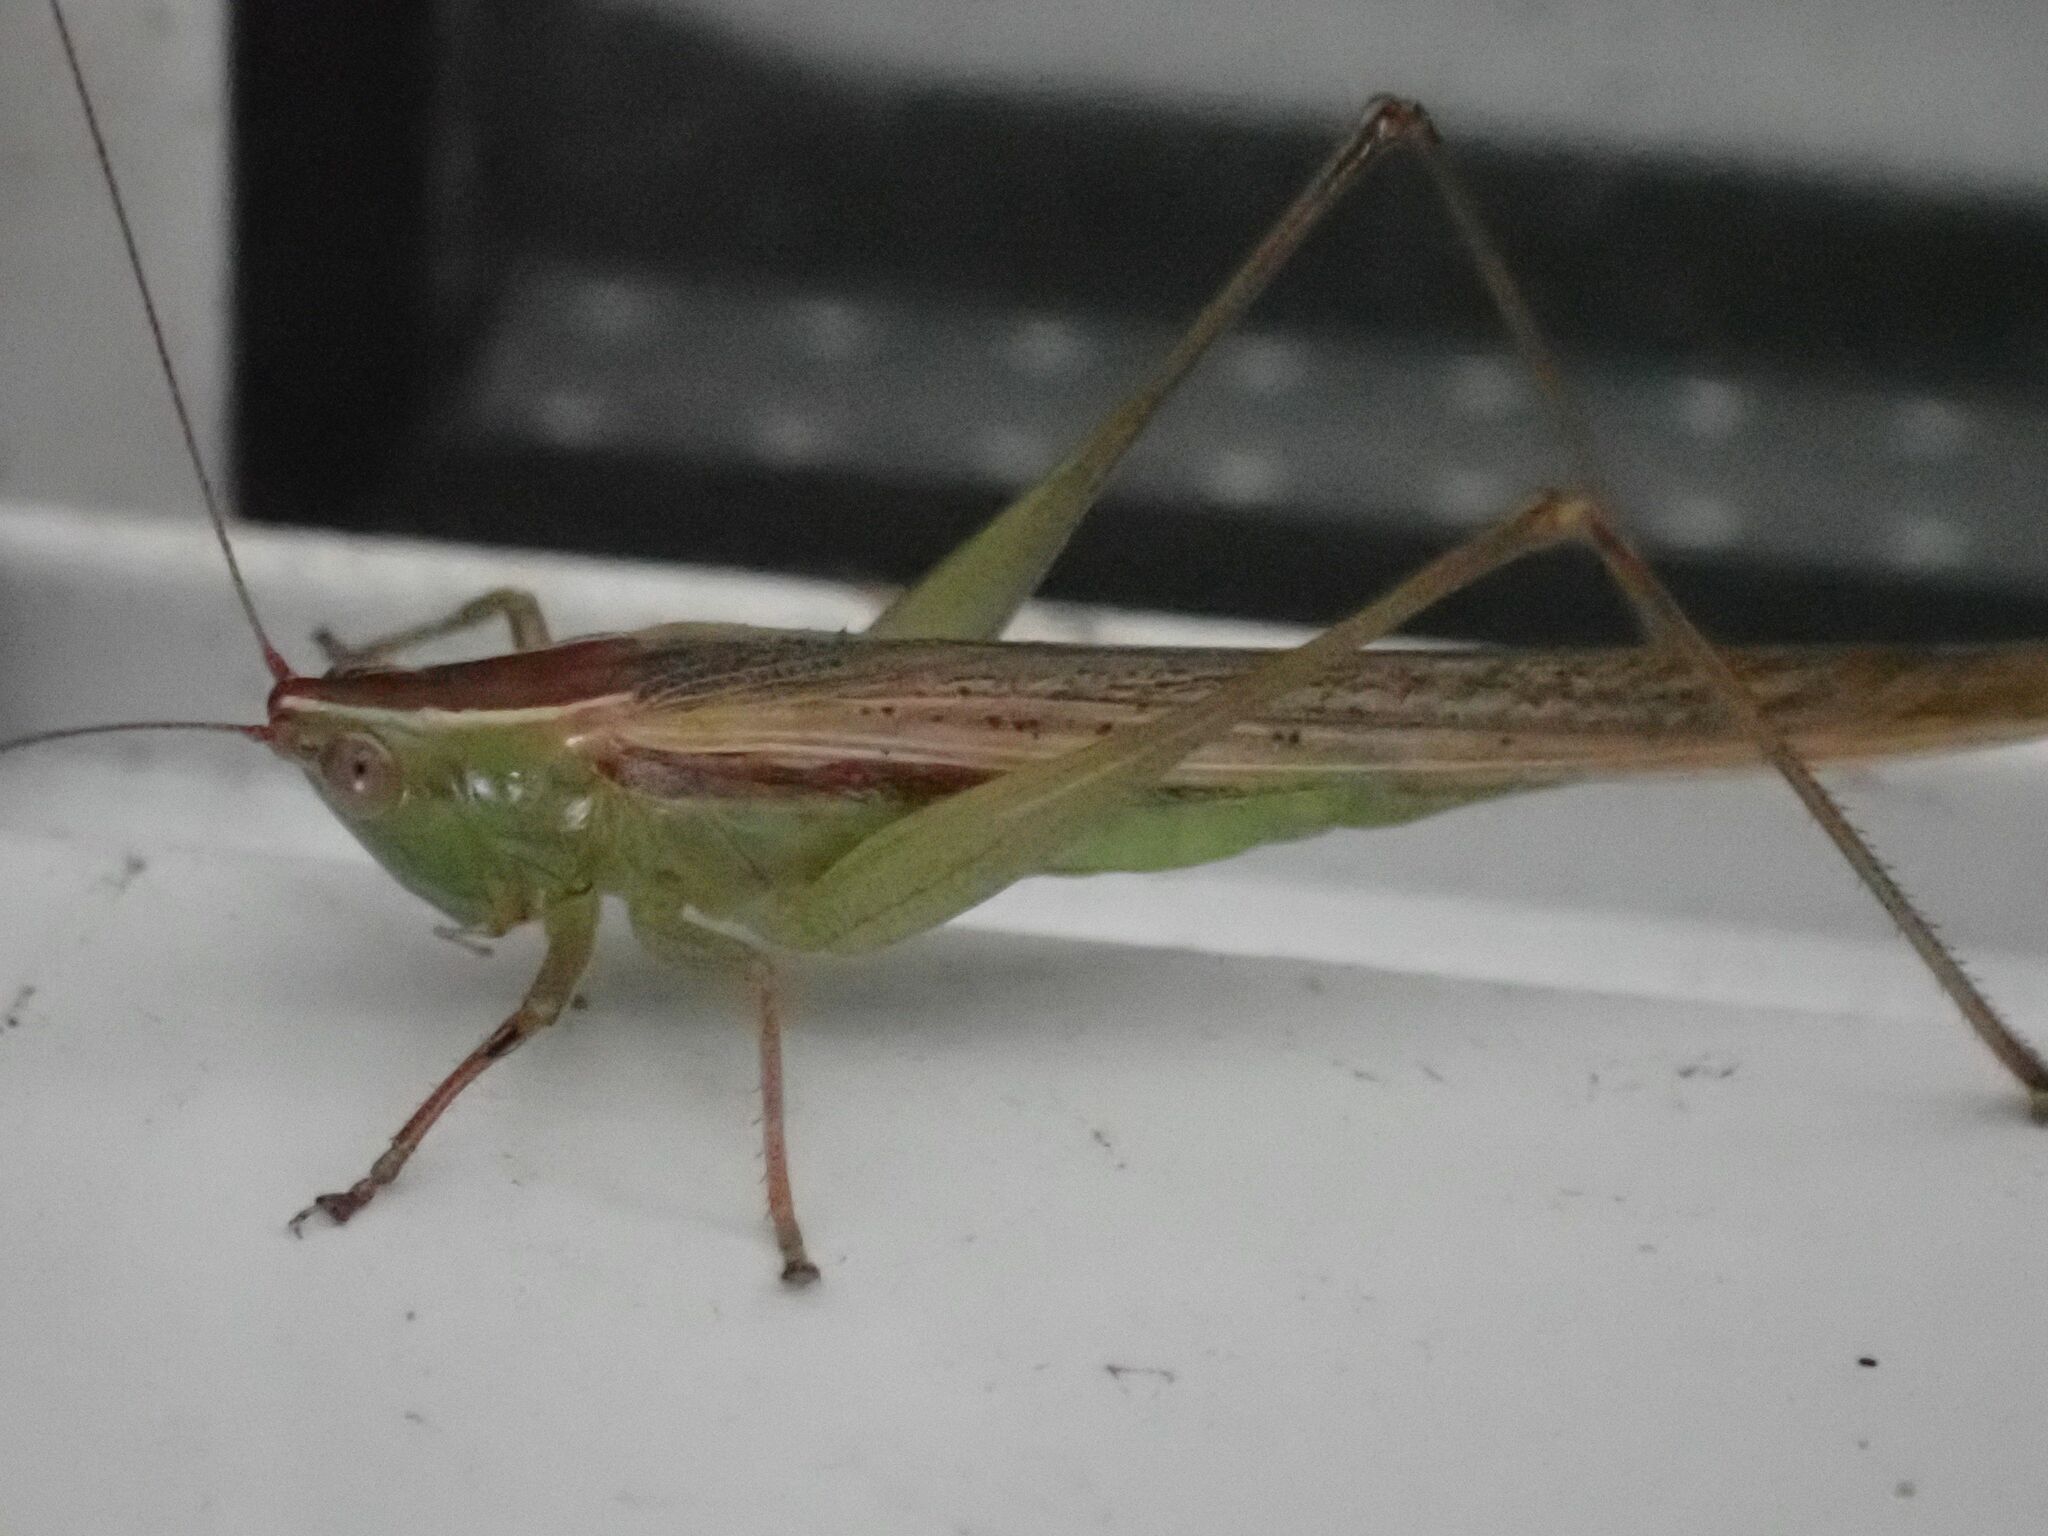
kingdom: Animalia
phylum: Arthropoda
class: Insecta
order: Orthoptera
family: Tettigoniidae
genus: Conocephalus
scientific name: Conocephalus upoluensis
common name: Upolu meadow katydid
